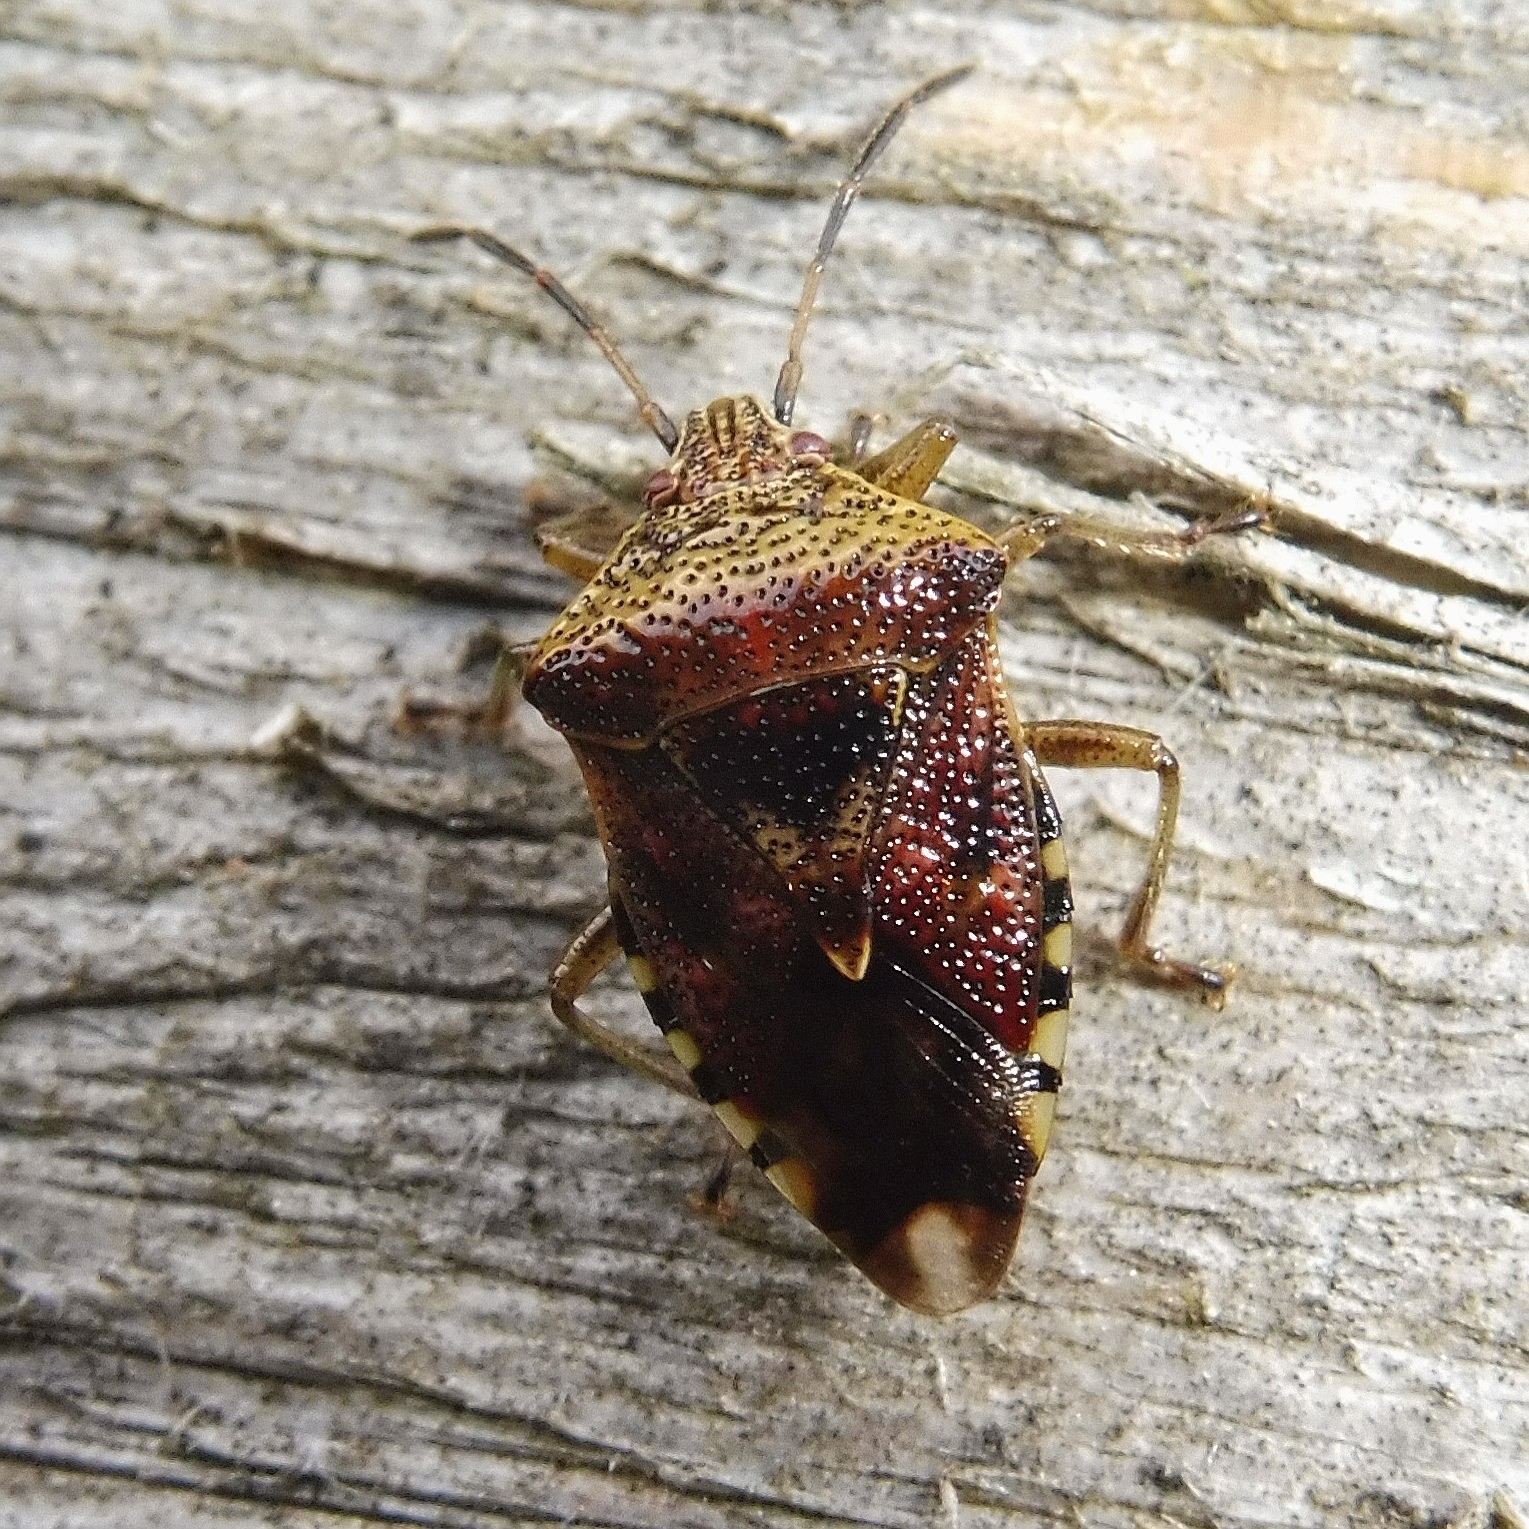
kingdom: Animalia
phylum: Arthropoda
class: Insecta
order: Hemiptera
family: Acanthosomatidae
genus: Elasmucha
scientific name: Elasmucha grisea
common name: Parent bug
